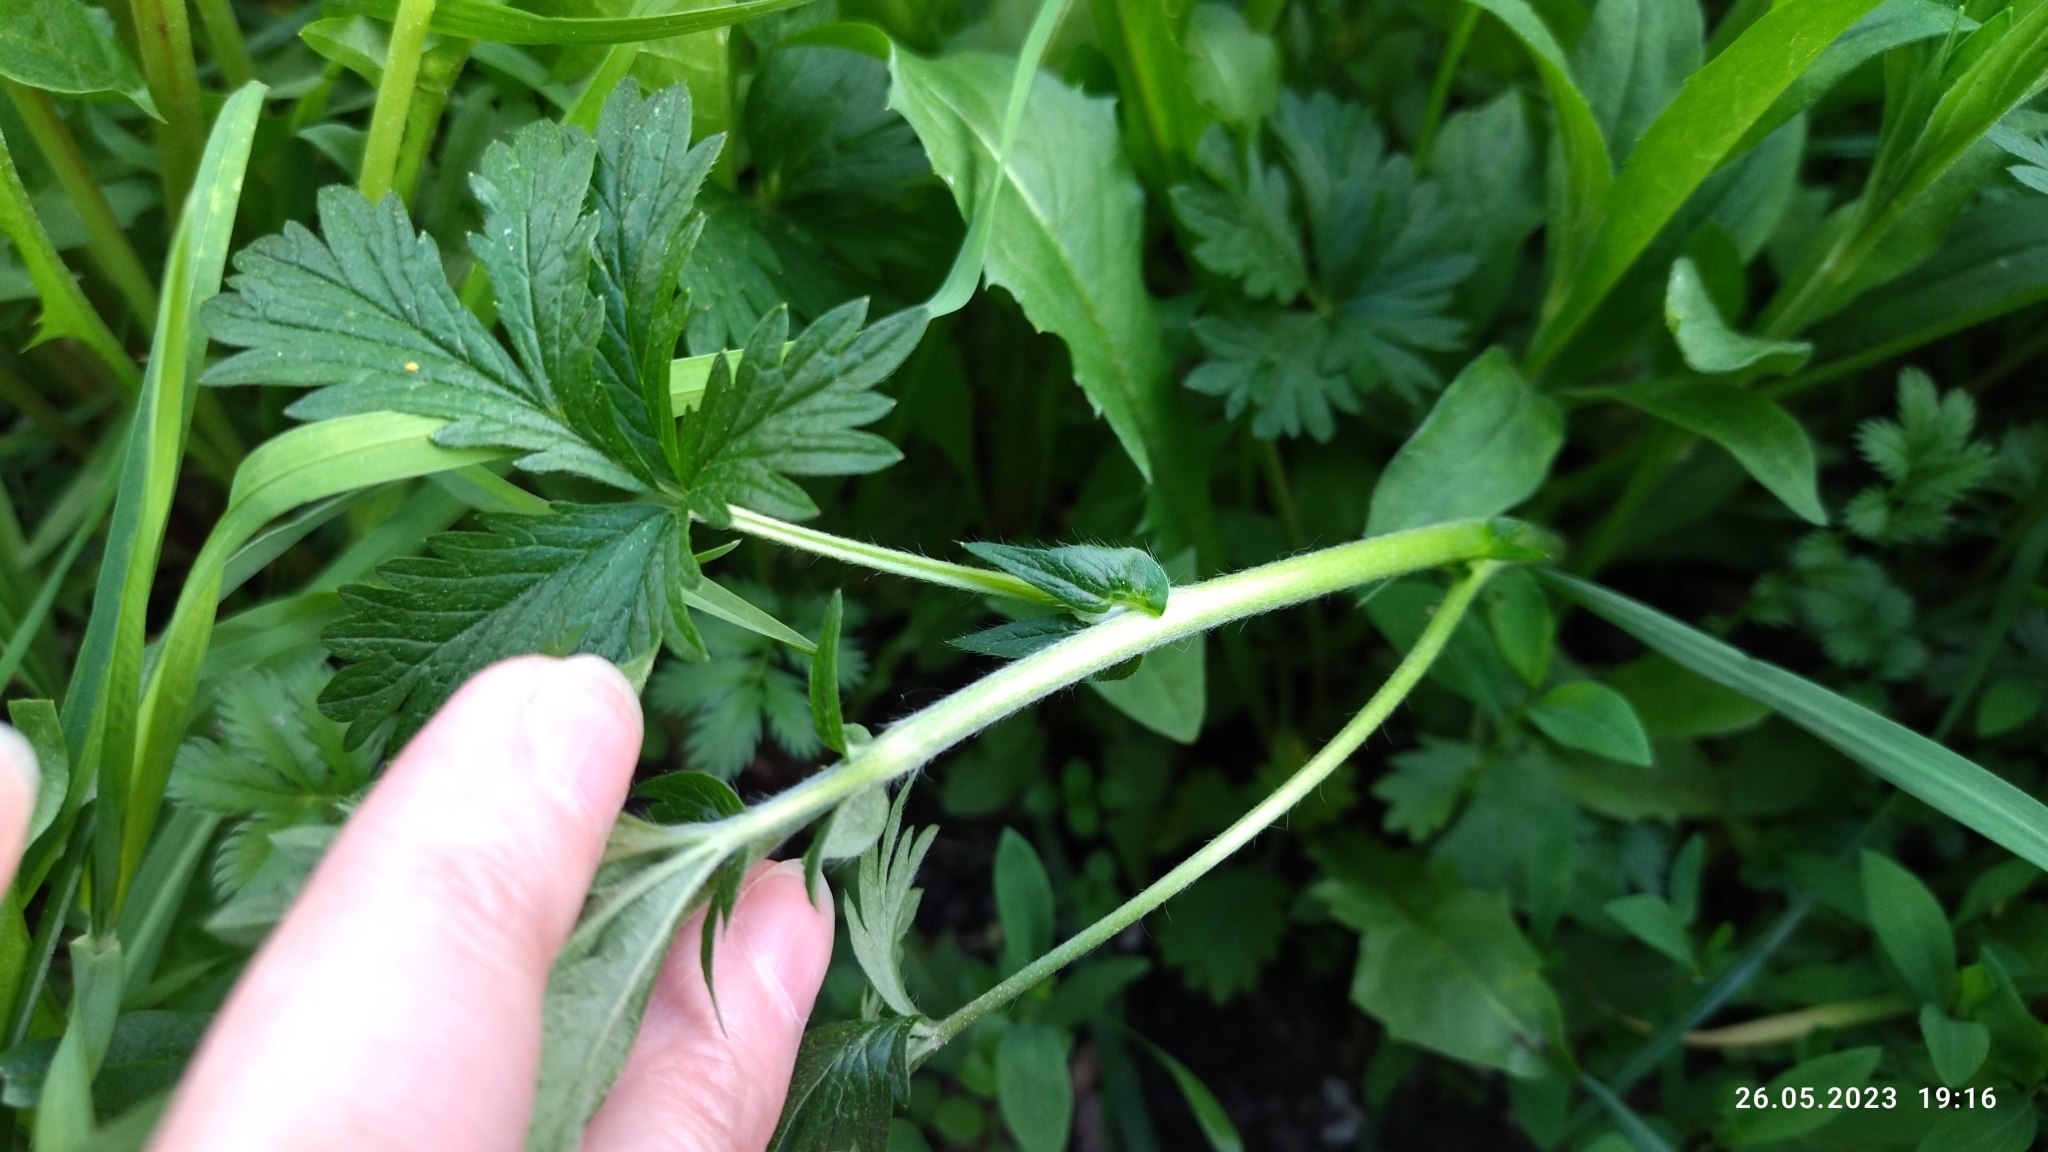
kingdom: Plantae
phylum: Tracheophyta
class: Magnoliopsida
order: Rosales
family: Rosaceae
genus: Potentilla
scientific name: Potentilla intermedia
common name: Downy cinquefoil
